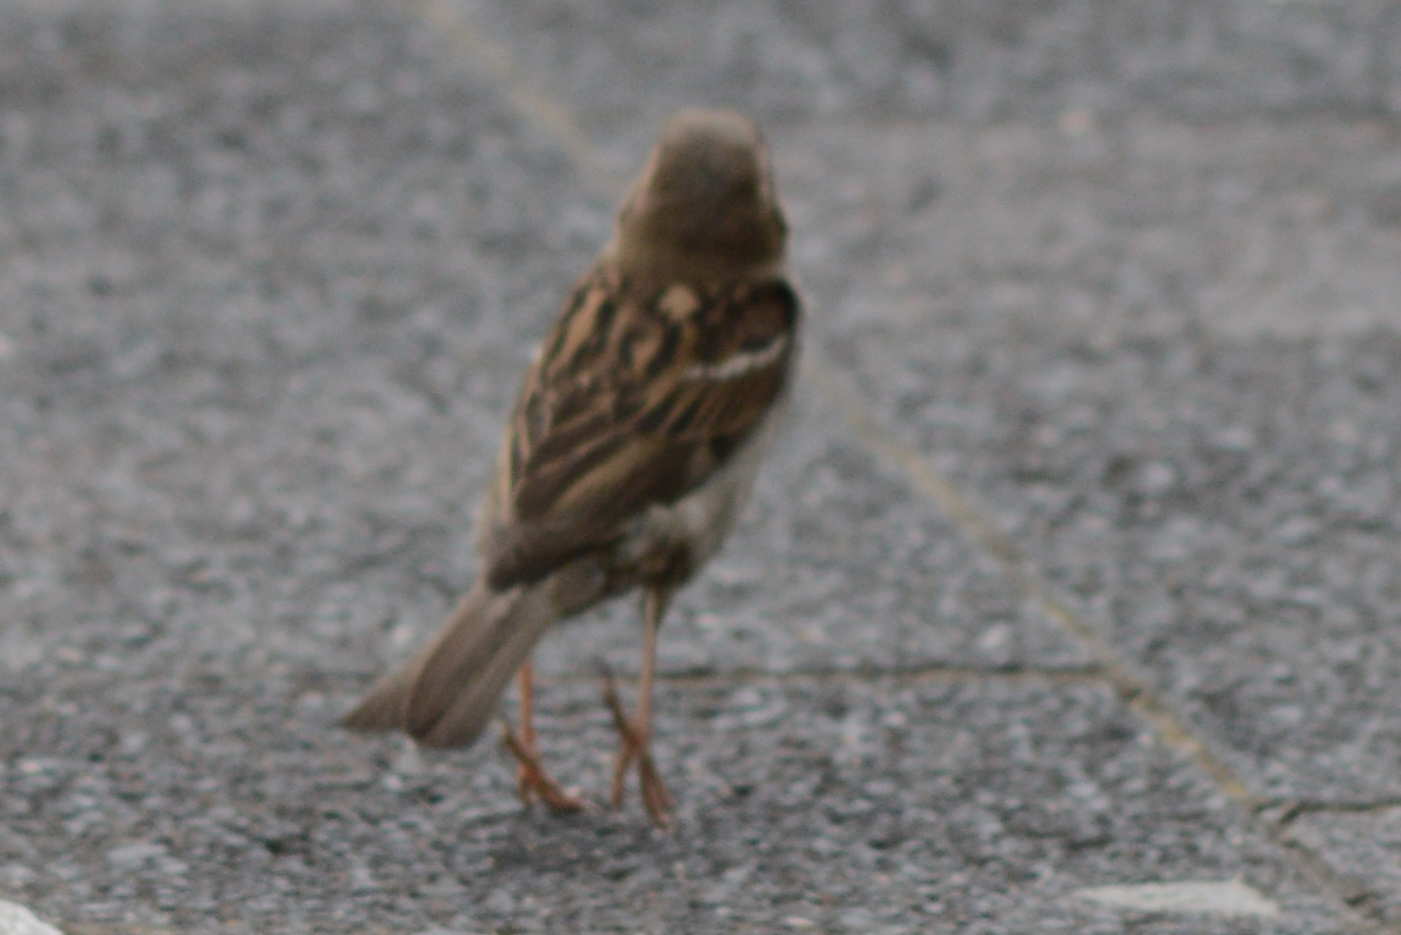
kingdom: Animalia
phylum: Chordata
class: Aves
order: Passeriformes
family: Passeridae
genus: Passer
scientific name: Passer domesticus
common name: House sparrow
